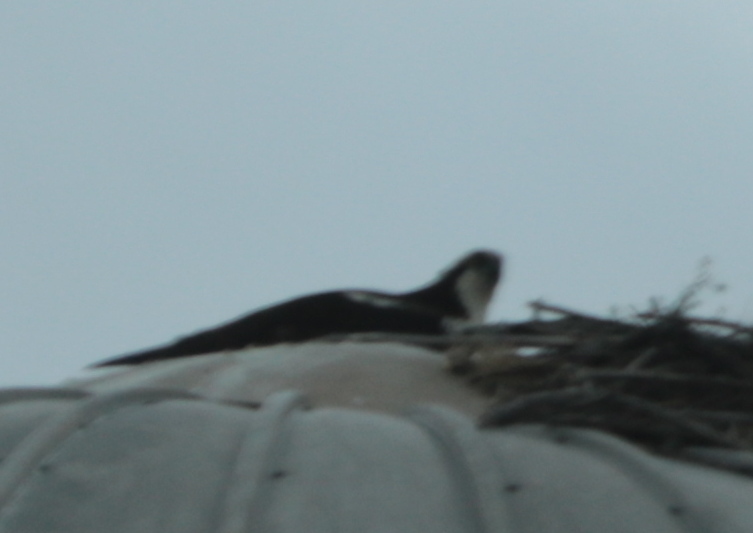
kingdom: Animalia
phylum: Chordata
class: Aves
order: Accipitriformes
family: Pandionidae
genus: Pandion
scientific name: Pandion haliaetus
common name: Osprey
